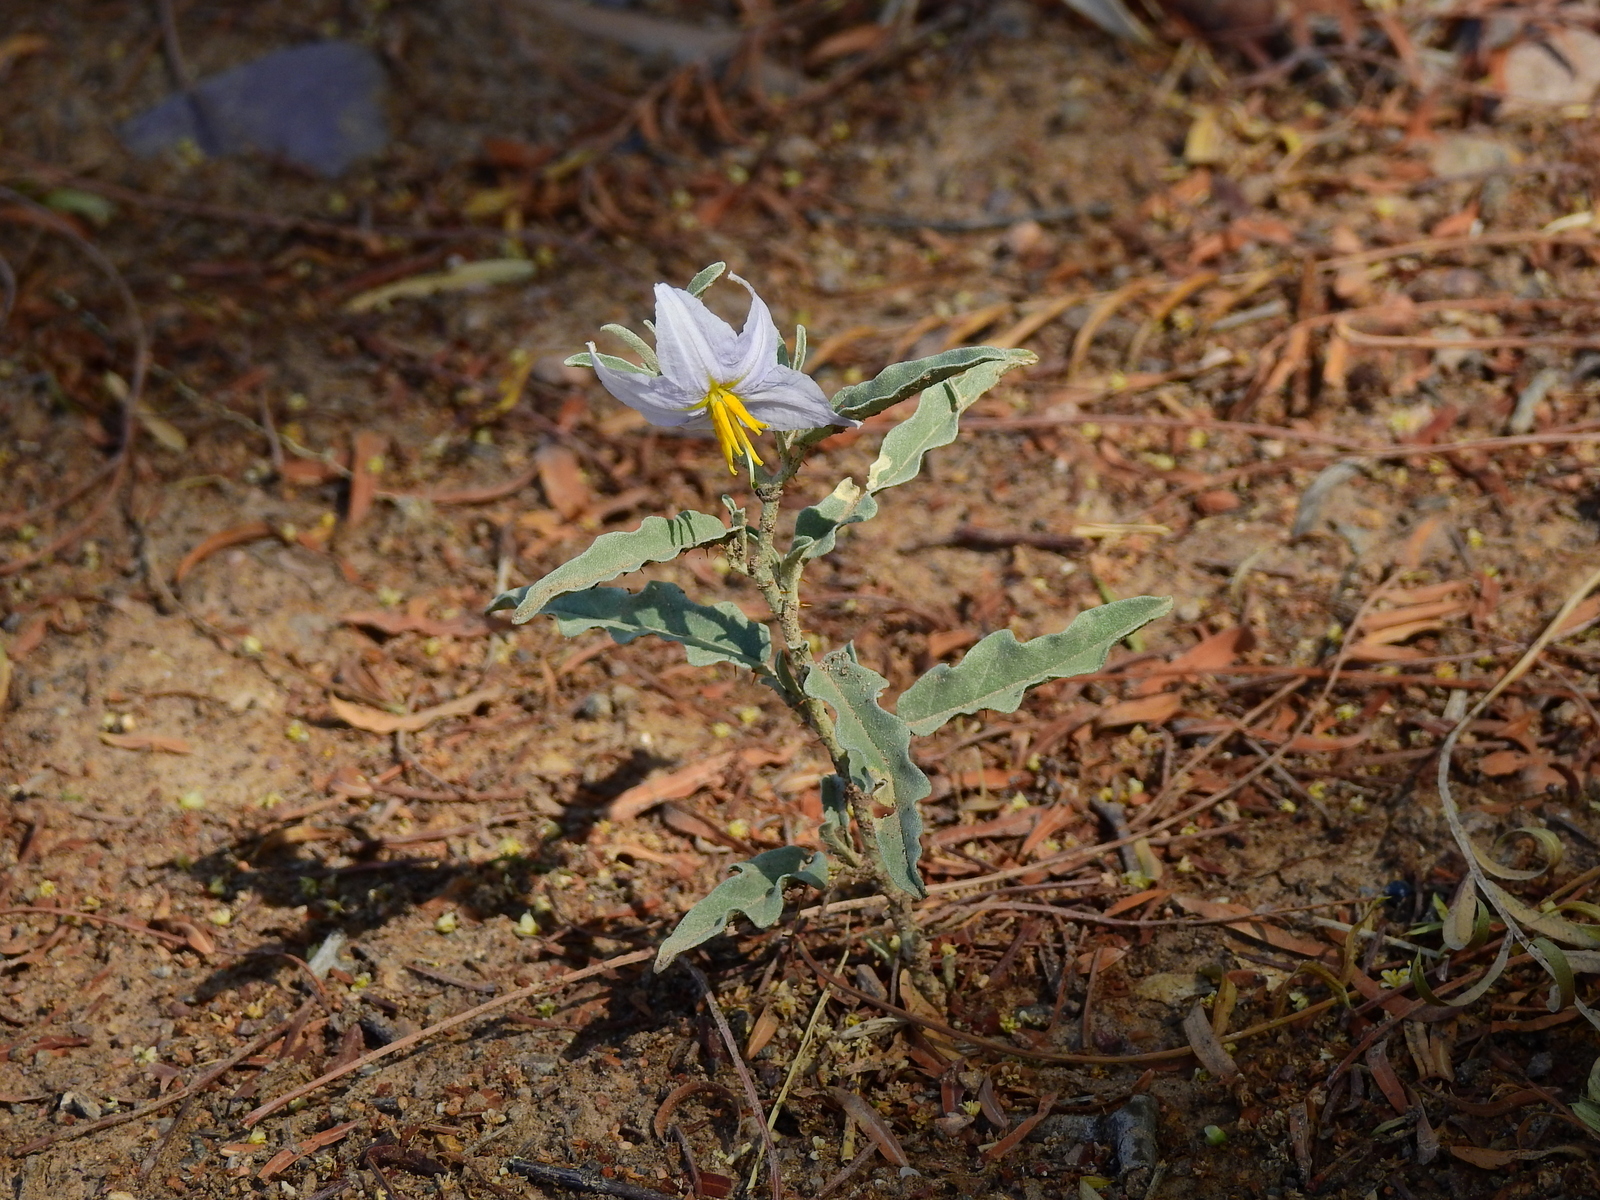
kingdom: Plantae
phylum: Tracheophyta
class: Magnoliopsida
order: Solanales
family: Solanaceae
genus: Solanum
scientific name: Solanum elaeagnifolium
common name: Silverleaf nightshade
